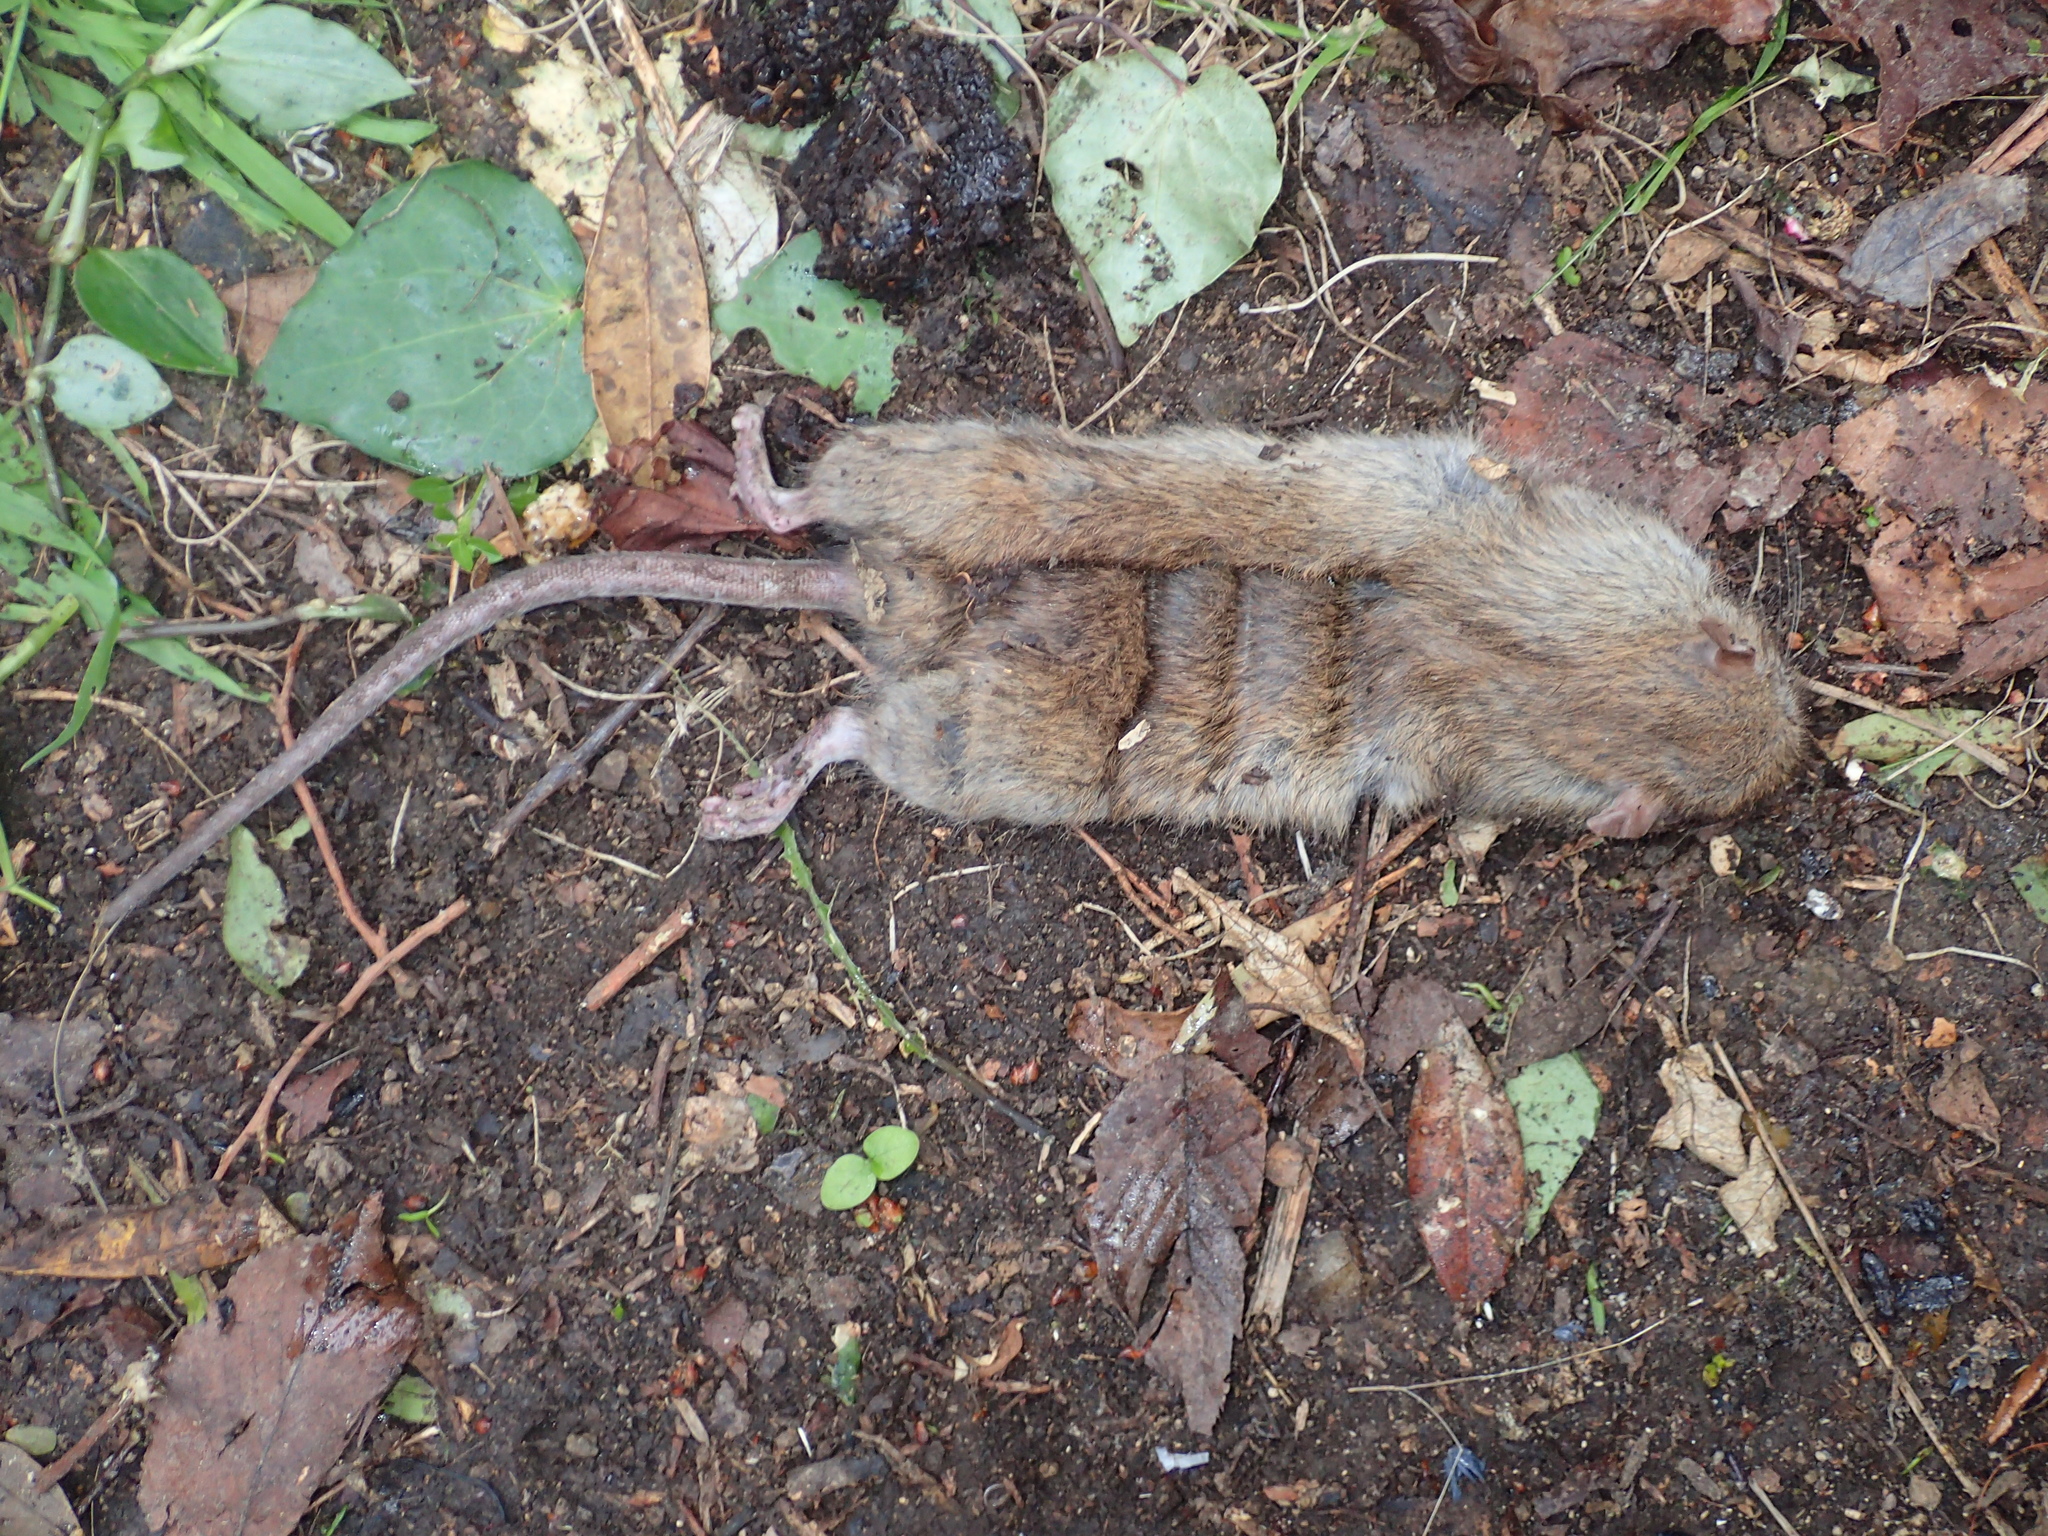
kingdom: Animalia
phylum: Chordata
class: Mammalia
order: Rodentia
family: Muridae
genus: Rattus
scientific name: Rattus norvegicus
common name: Brown rat
